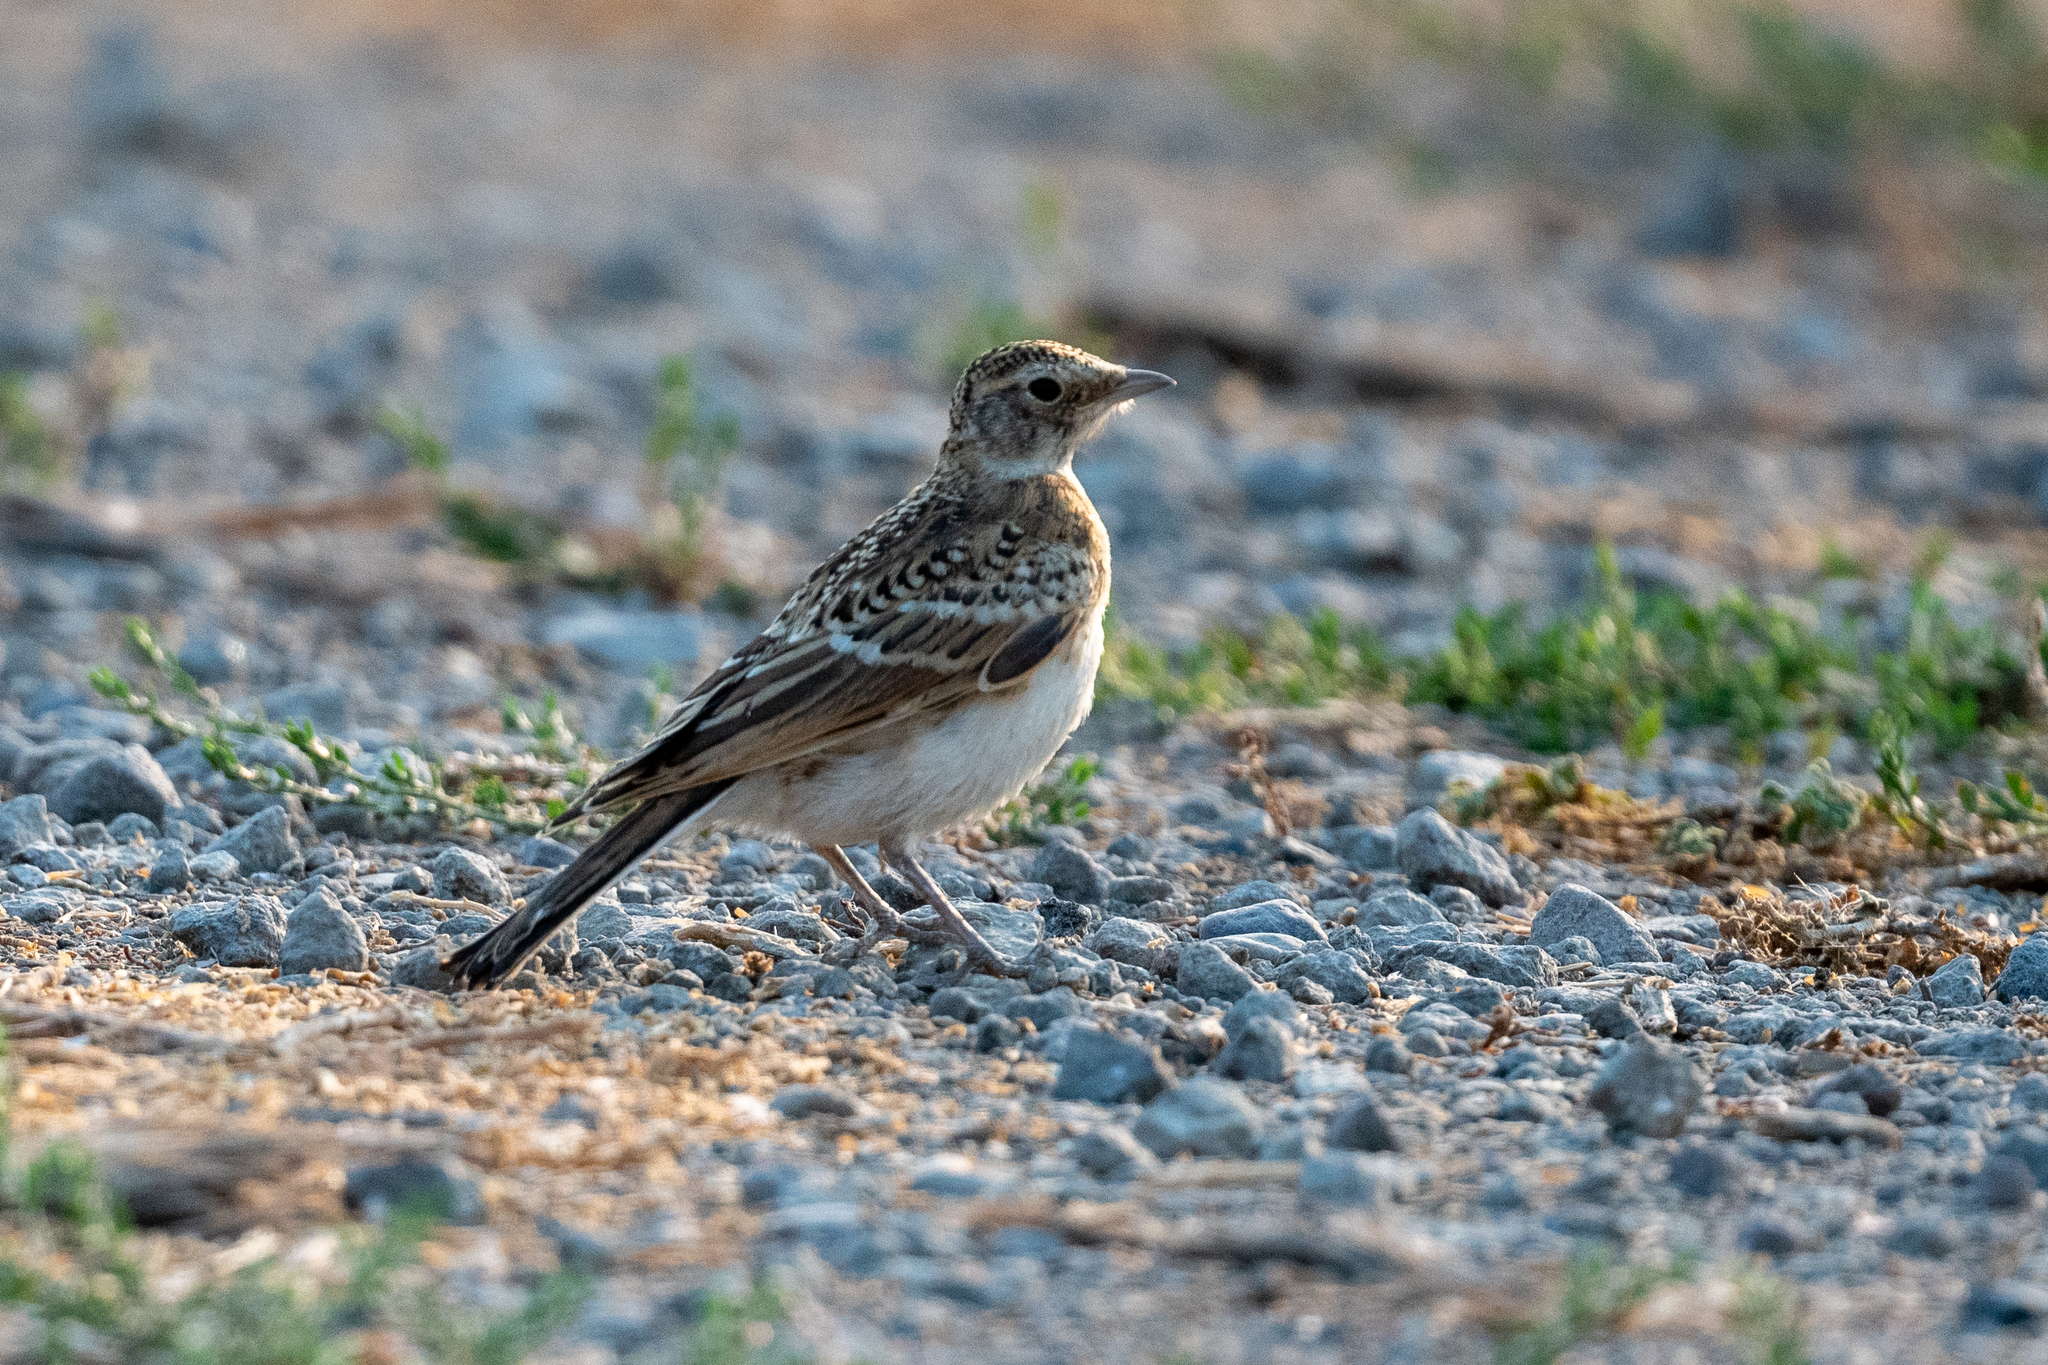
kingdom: Animalia
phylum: Chordata
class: Aves
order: Passeriformes
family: Alaudidae
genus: Eremophila
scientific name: Eremophila alpestris
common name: Horned lark
